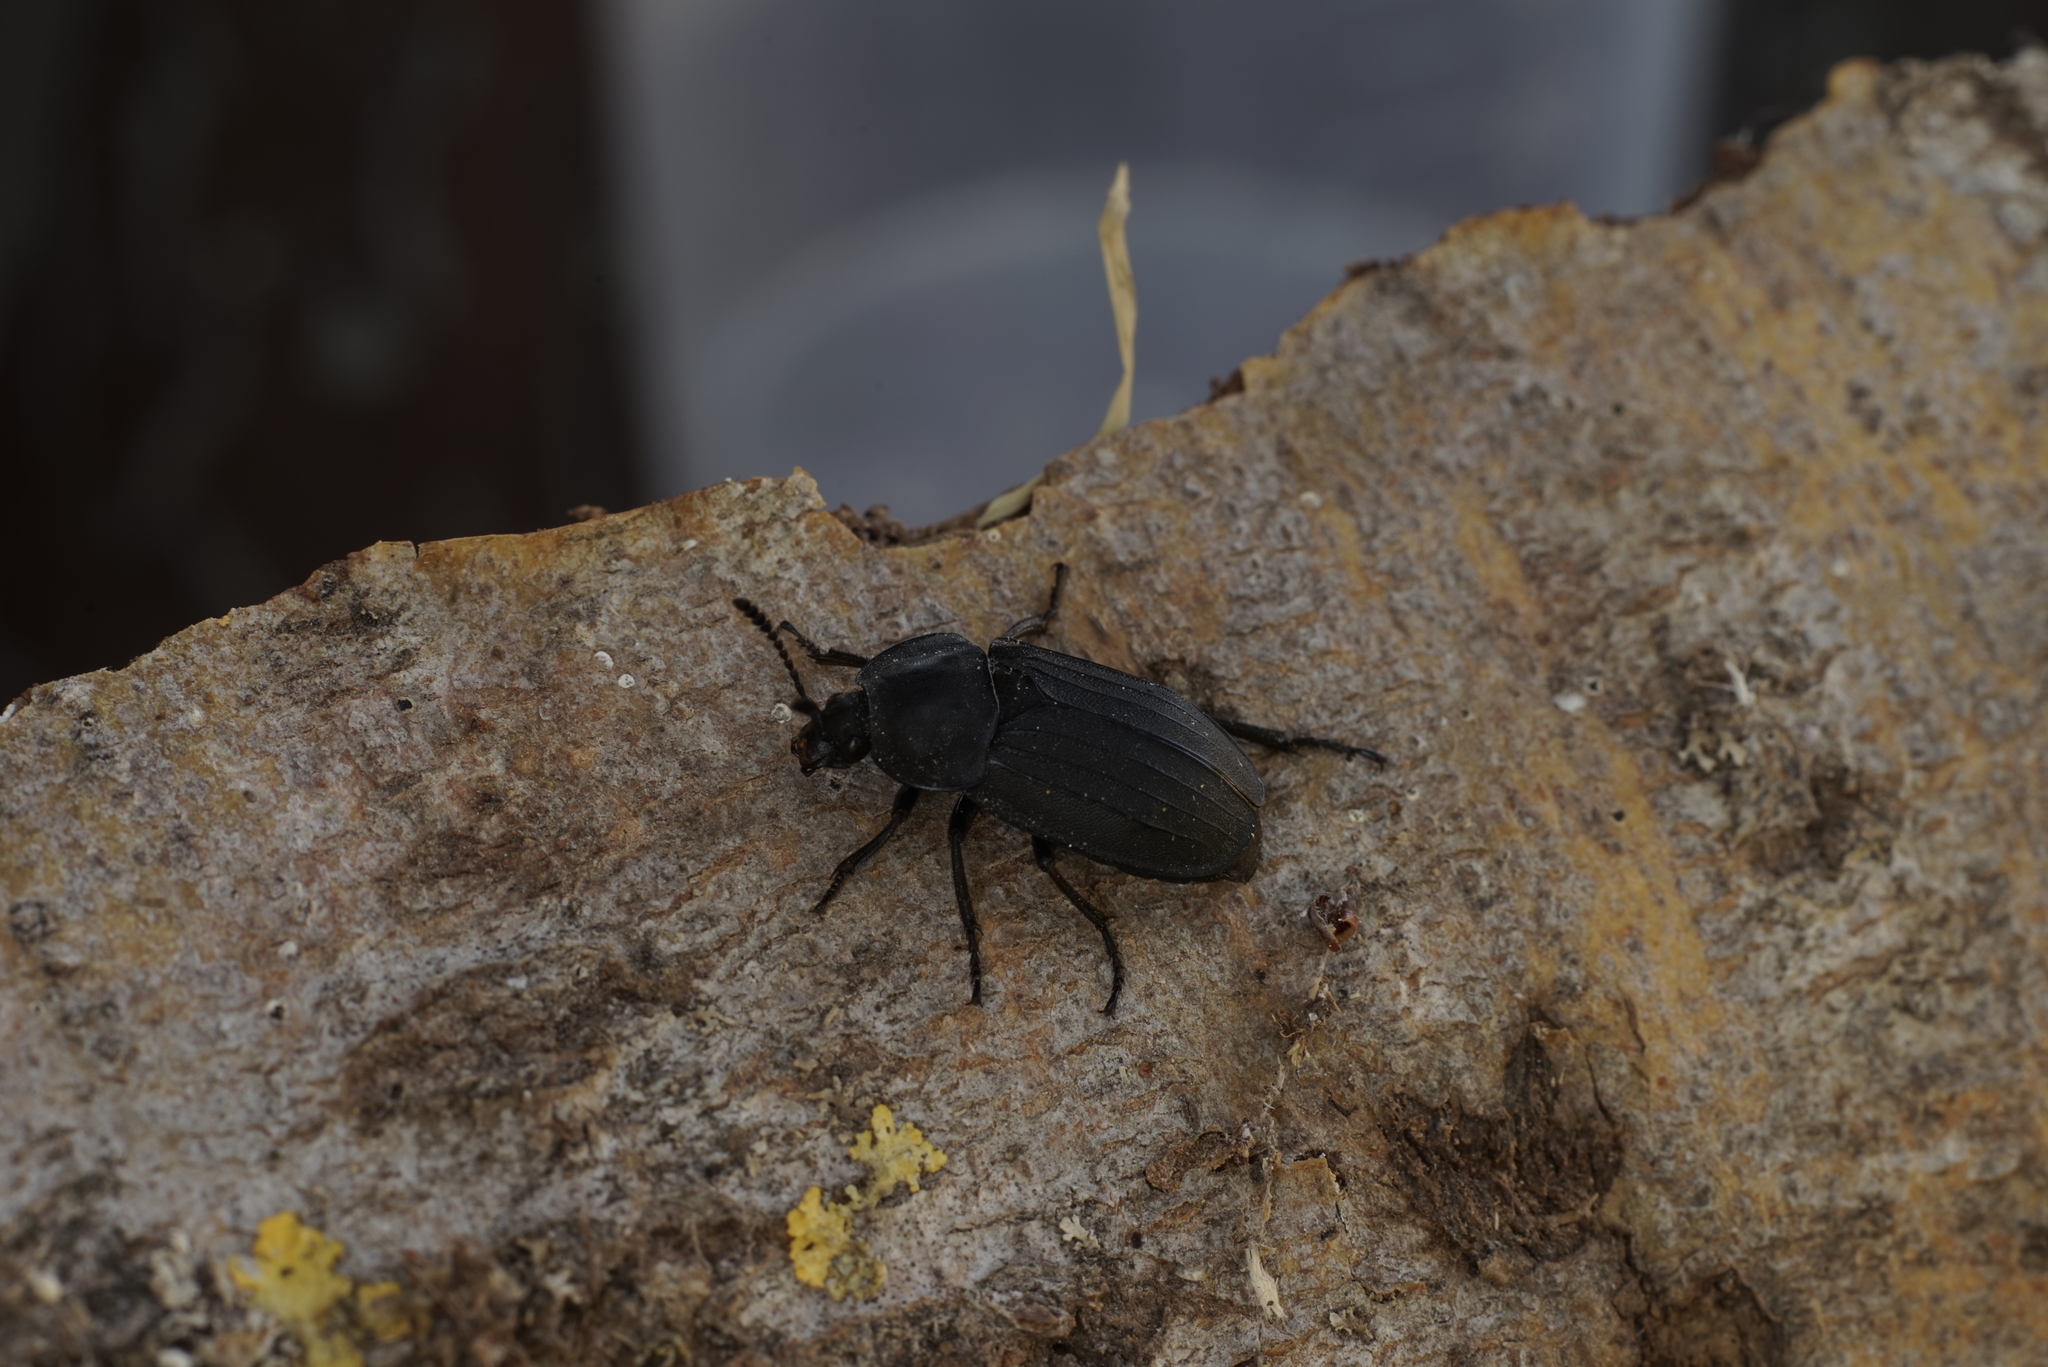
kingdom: Animalia
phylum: Arthropoda
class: Insecta
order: Coleoptera
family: Staphylinidae
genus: Silpha
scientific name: Silpha tristis
